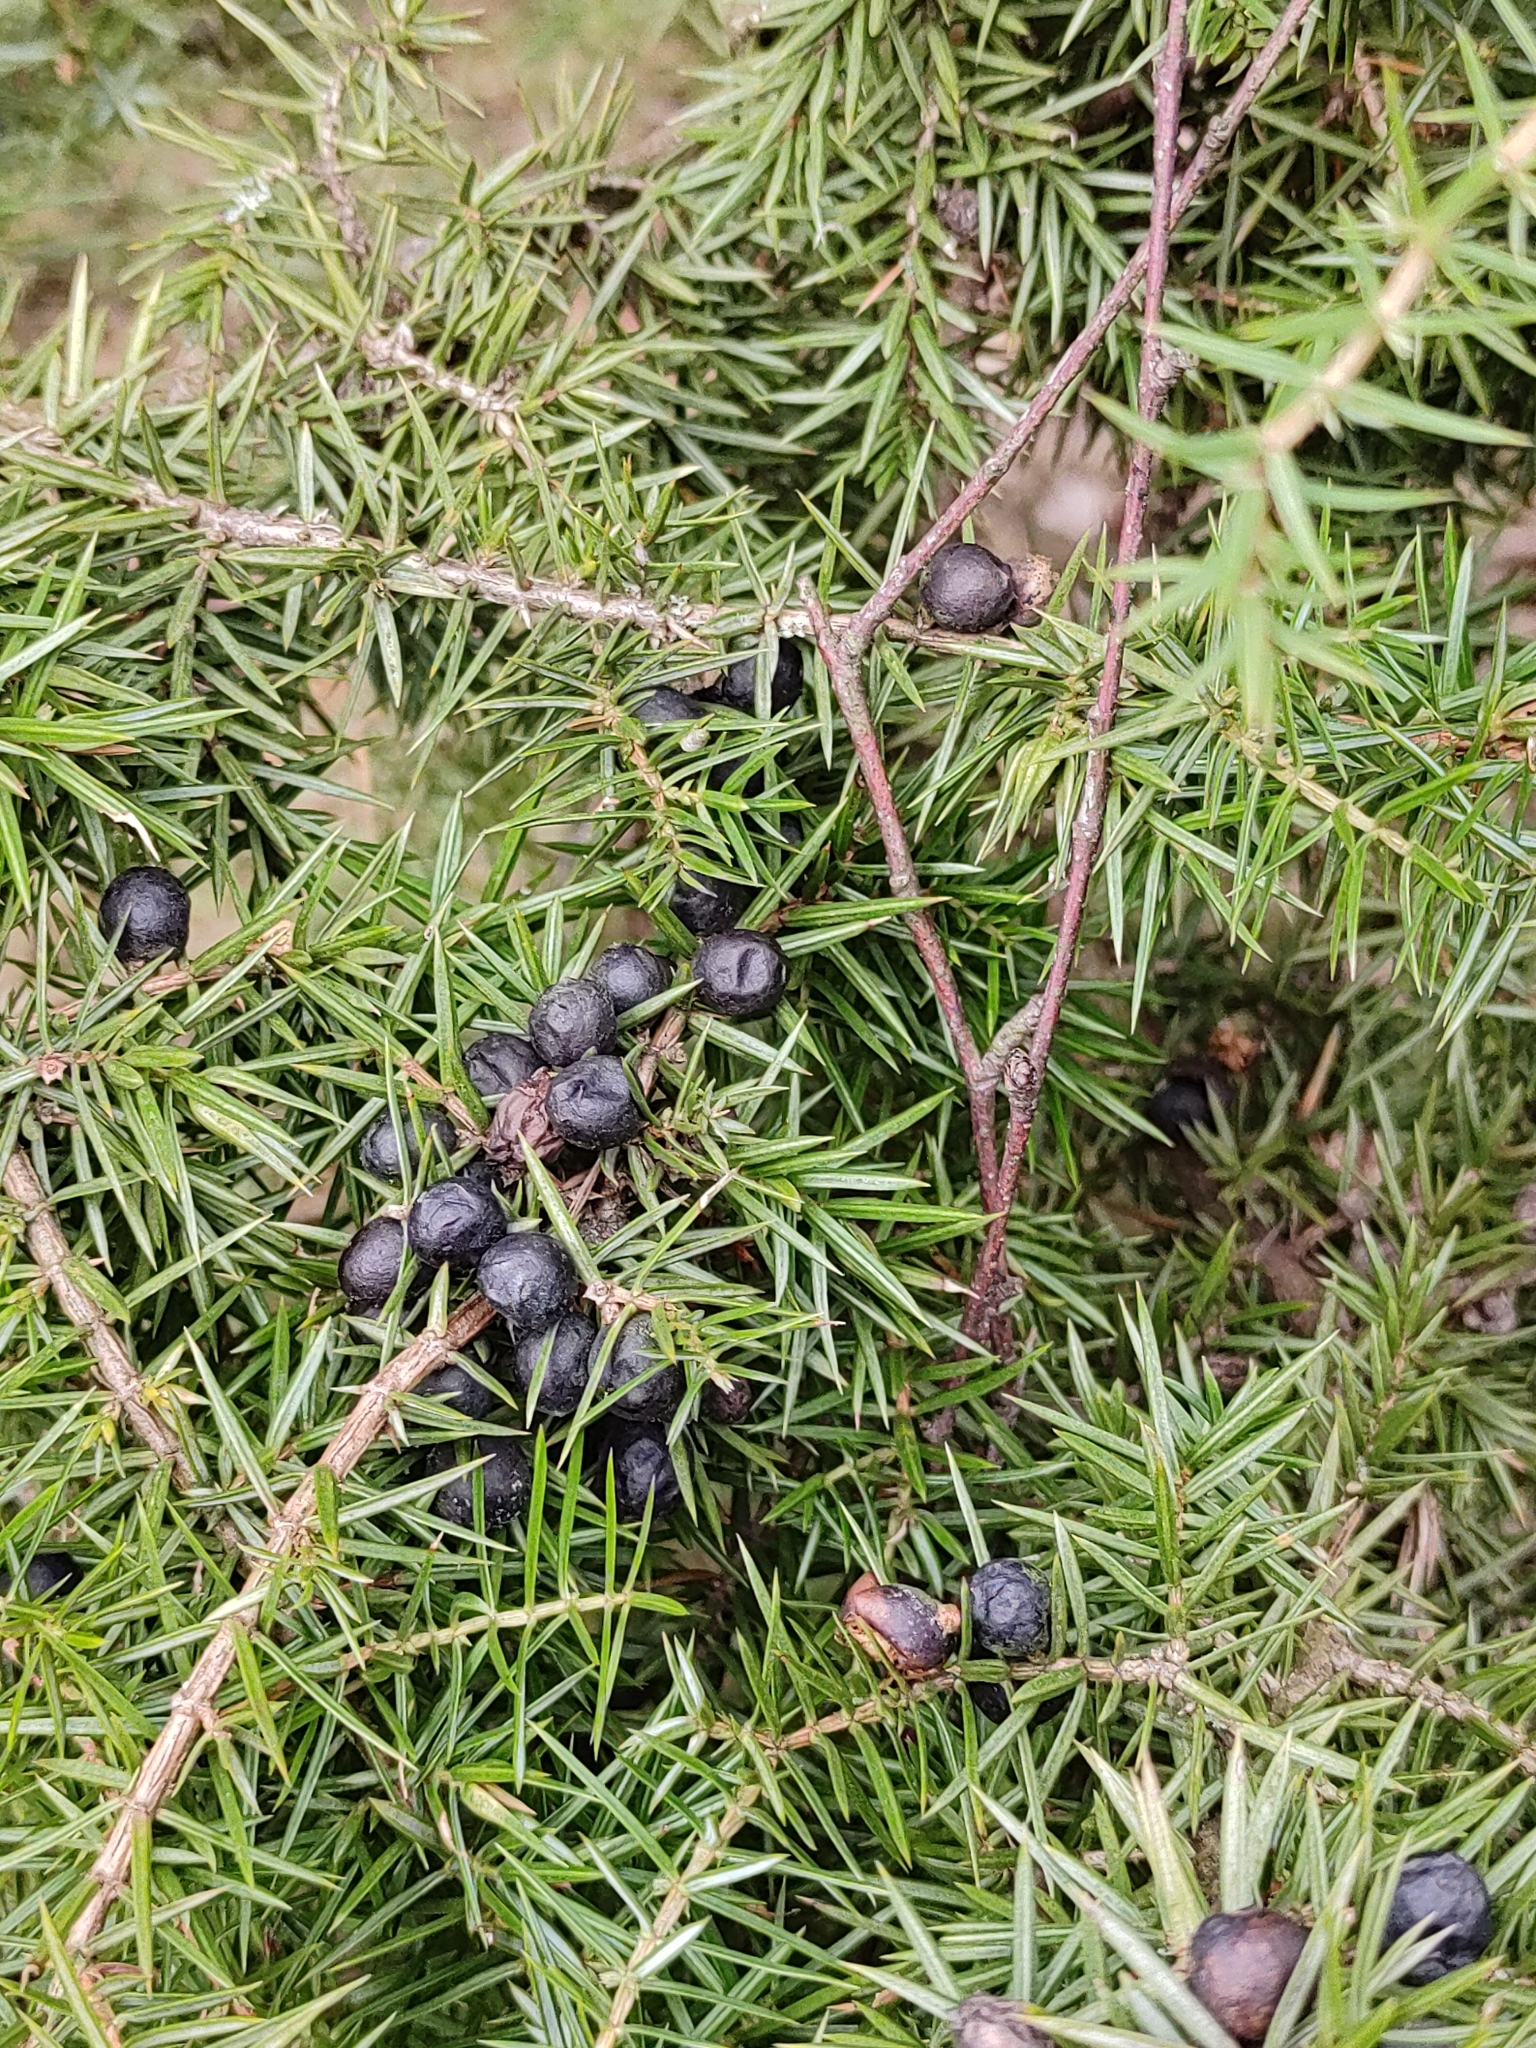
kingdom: Plantae
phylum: Tracheophyta
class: Pinopsida
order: Pinales
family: Cupressaceae
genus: Juniperus
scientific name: Juniperus communis
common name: Common juniper
